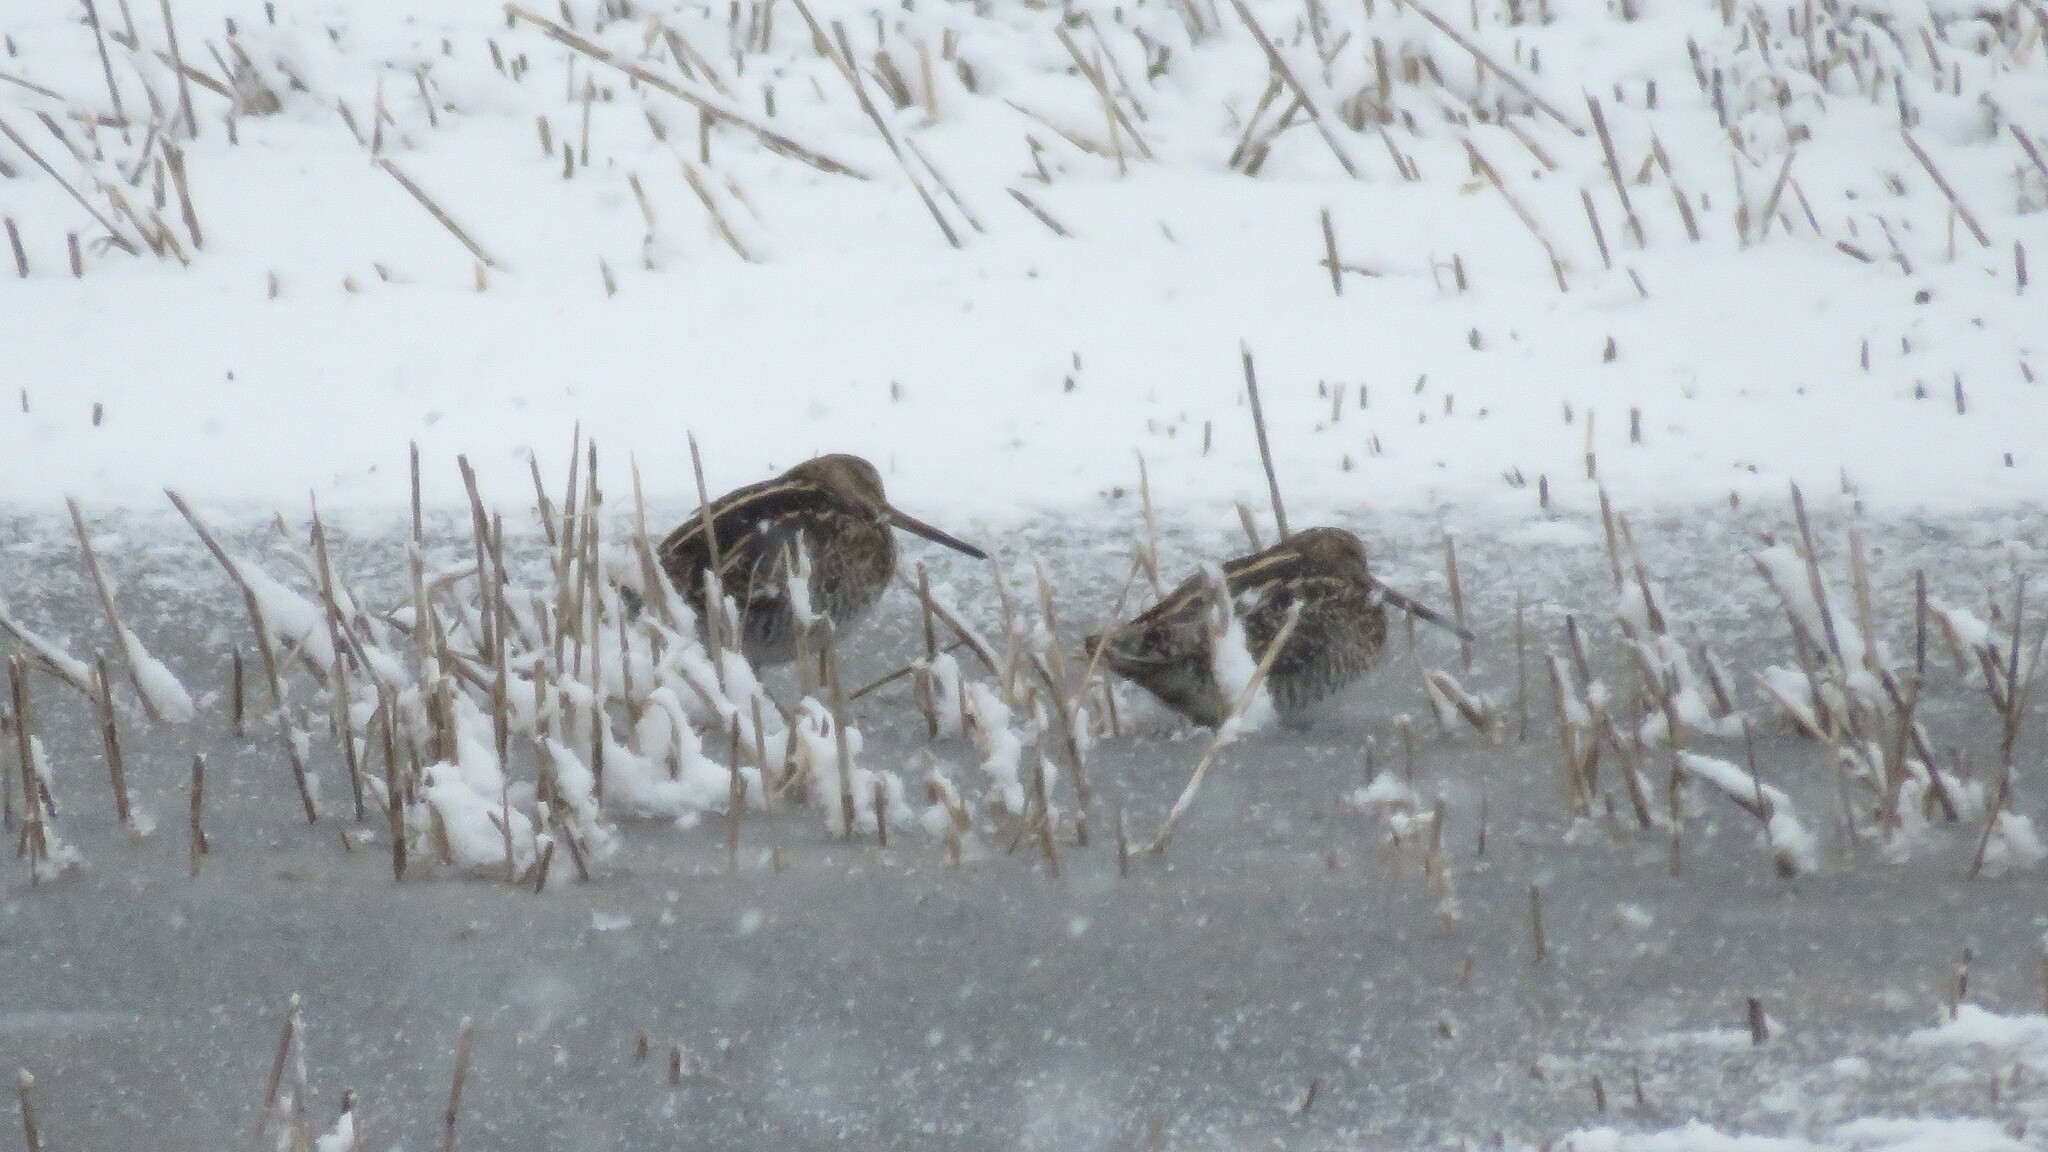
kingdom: Animalia
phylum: Chordata
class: Aves
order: Charadriiformes
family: Scolopacidae
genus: Gallinago
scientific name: Gallinago delicata
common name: Wilson's snipe
